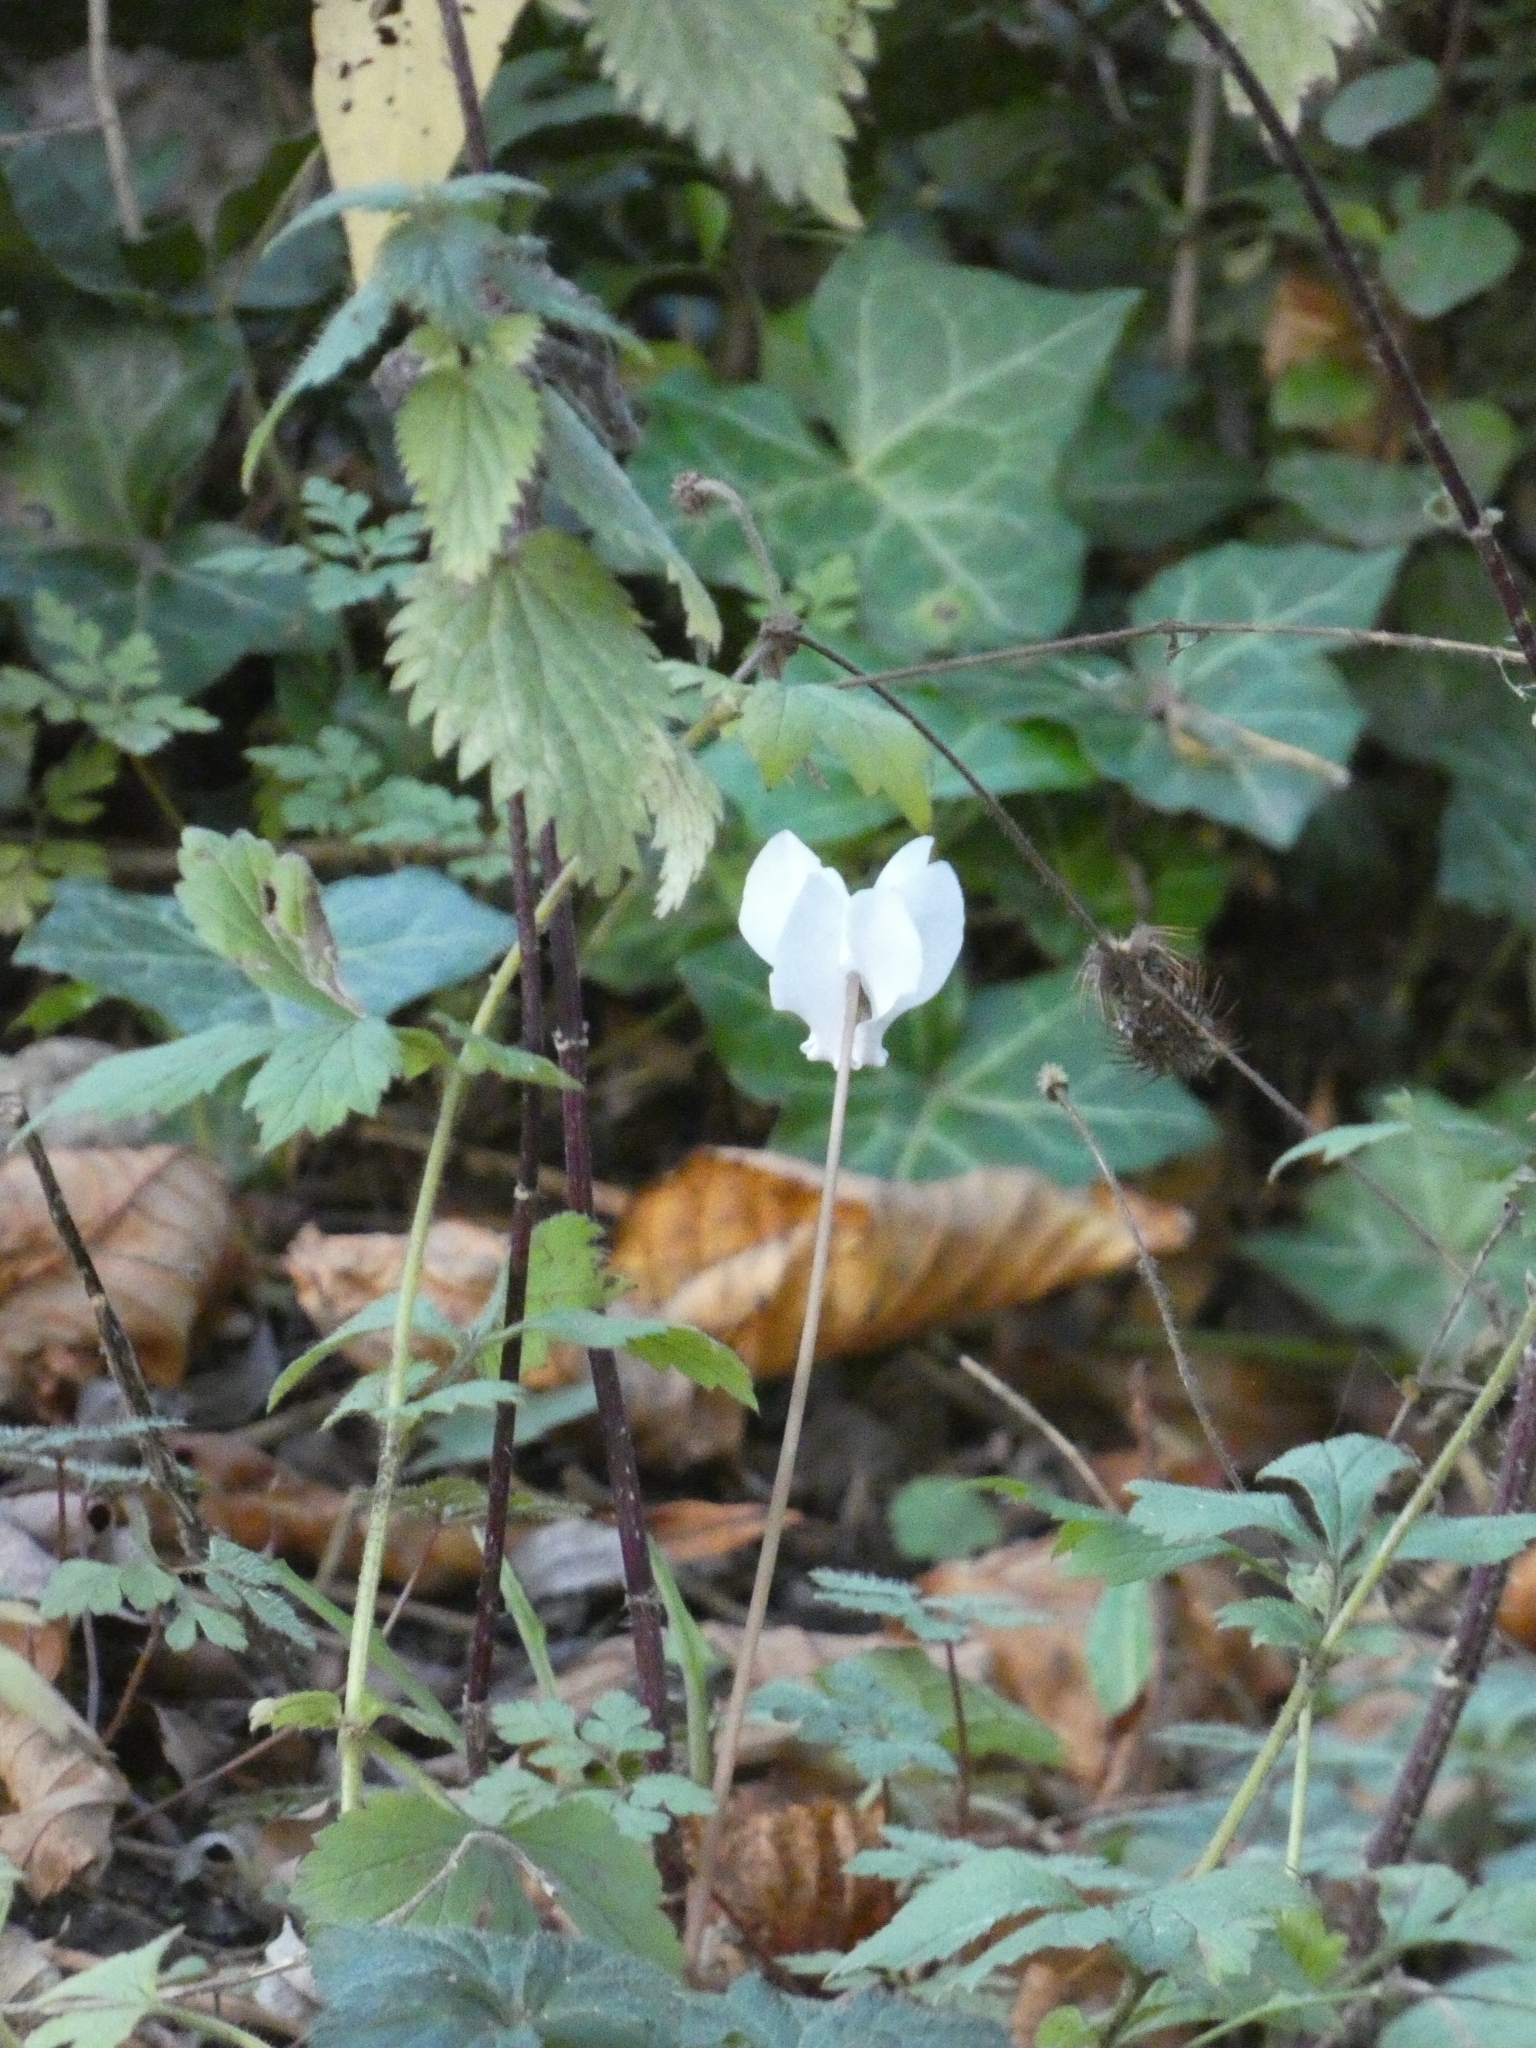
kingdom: Plantae
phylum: Tracheophyta
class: Magnoliopsida
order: Ericales
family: Primulaceae
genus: Cyclamen
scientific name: Cyclamen hederifolium
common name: Sowbread
